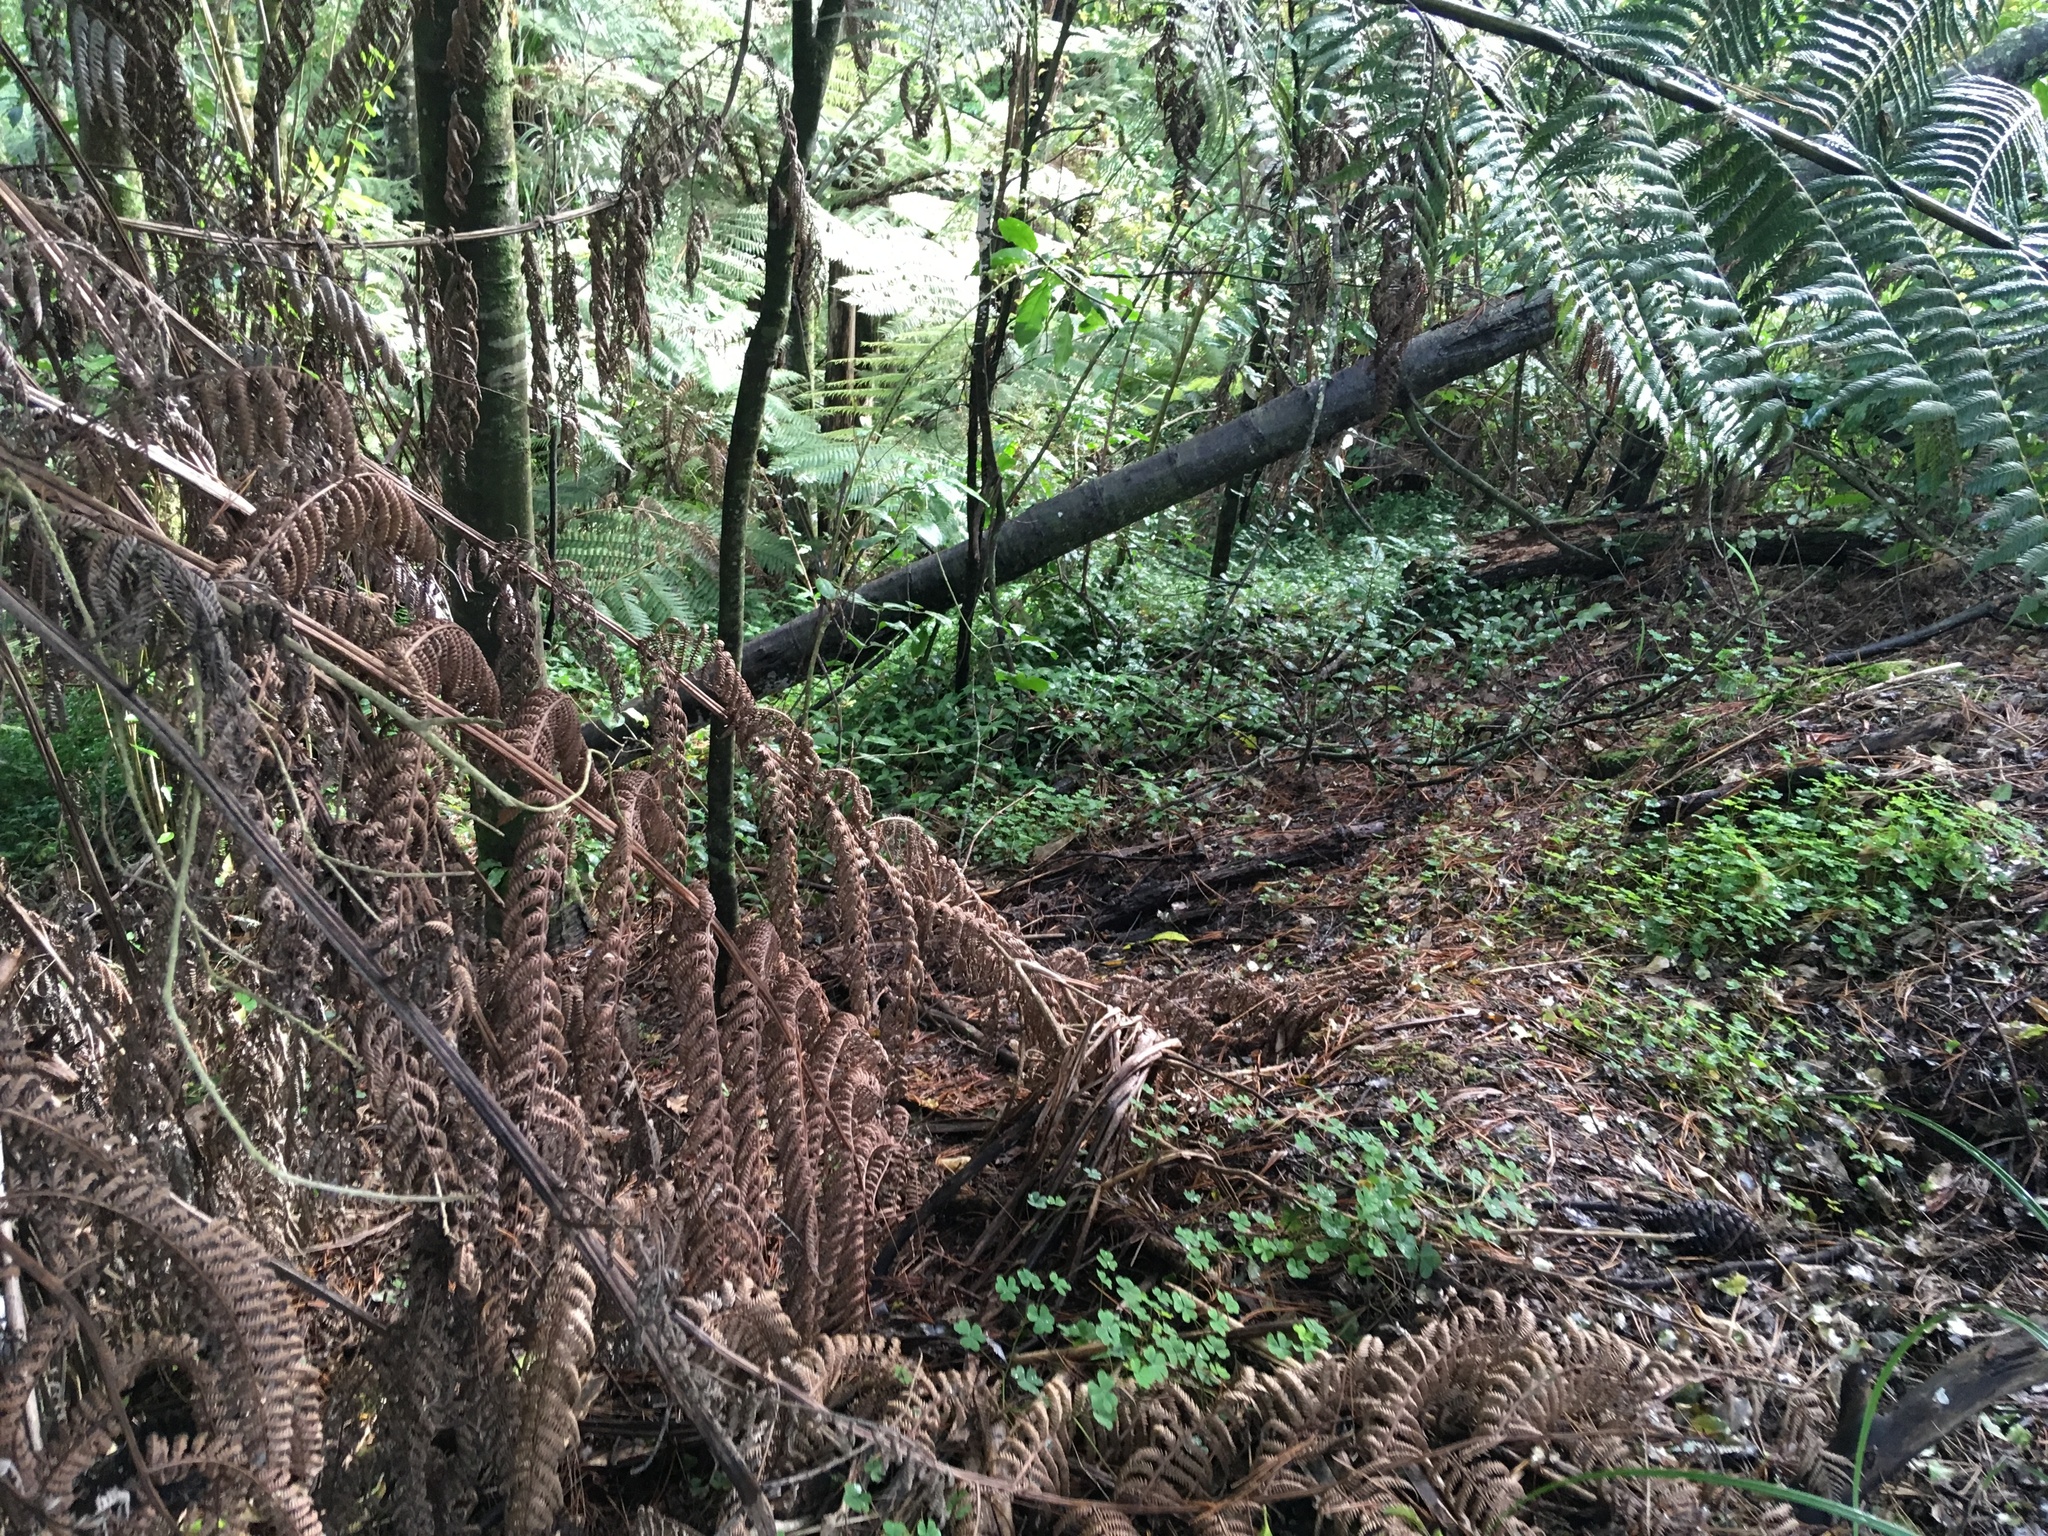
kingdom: Plantae
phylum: Tracheophyta
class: Magnoliopsida
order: Fabales
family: Fabaceae
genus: Paraserianthes
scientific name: Paraserianthes lophantha
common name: Plume albizia
